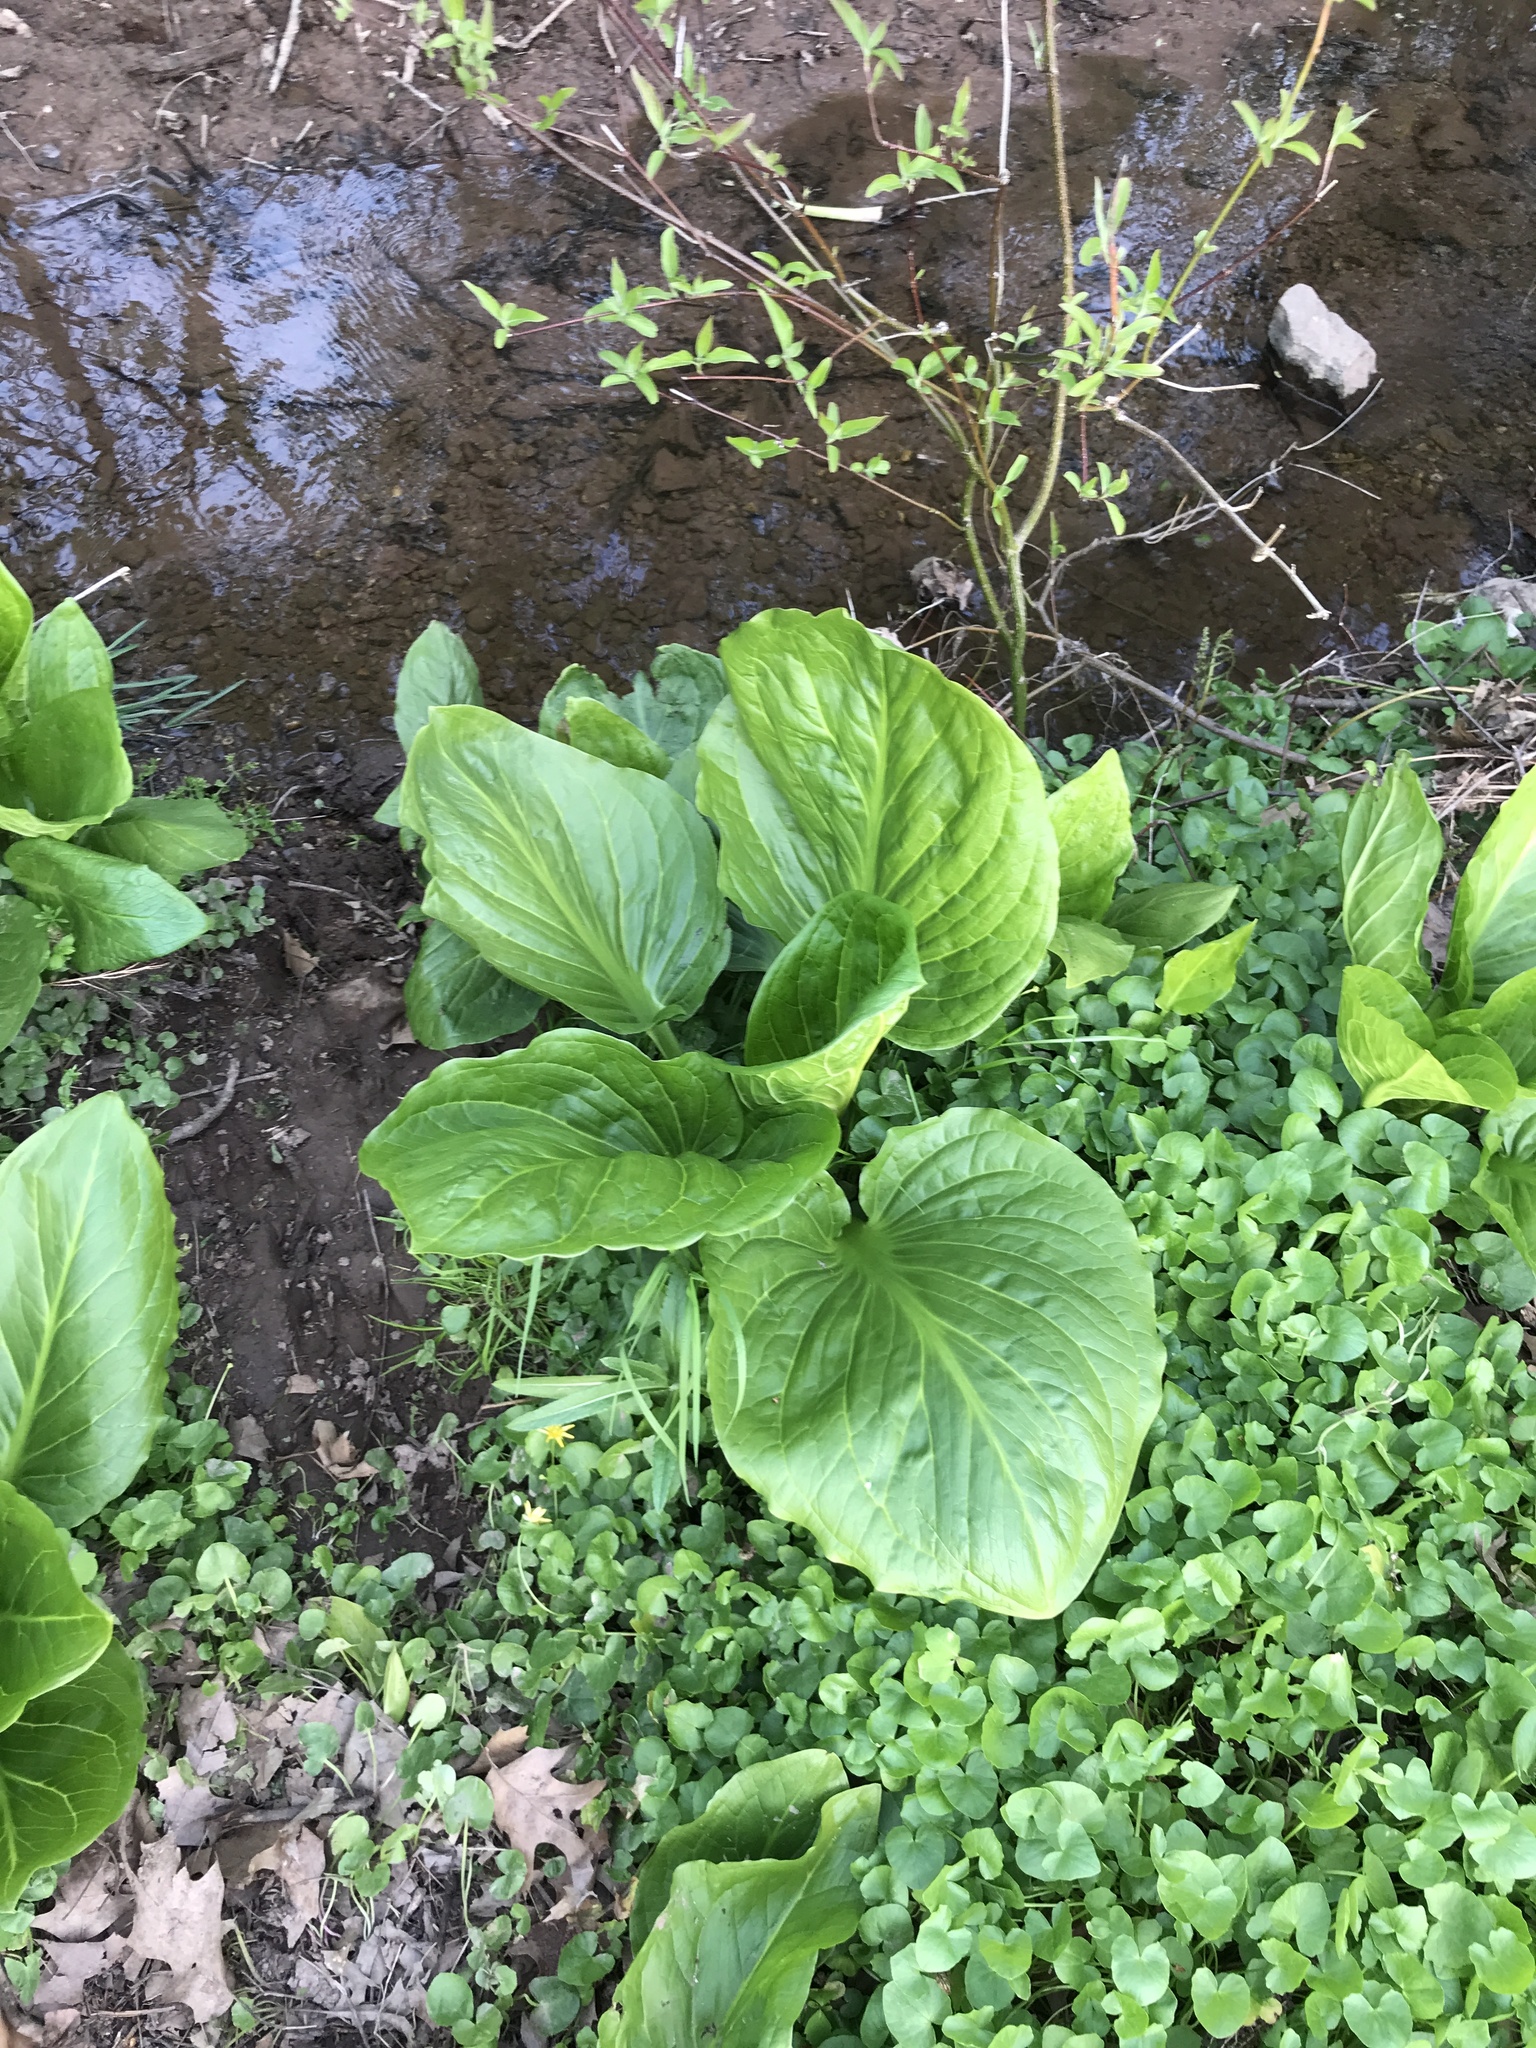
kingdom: Plantae
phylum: Tracheophyta
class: Liliopsida
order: Alismatales
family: Araceae
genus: Symplocarpus
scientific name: Symplocarpus foetidus
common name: Eastern skunk cabbage
